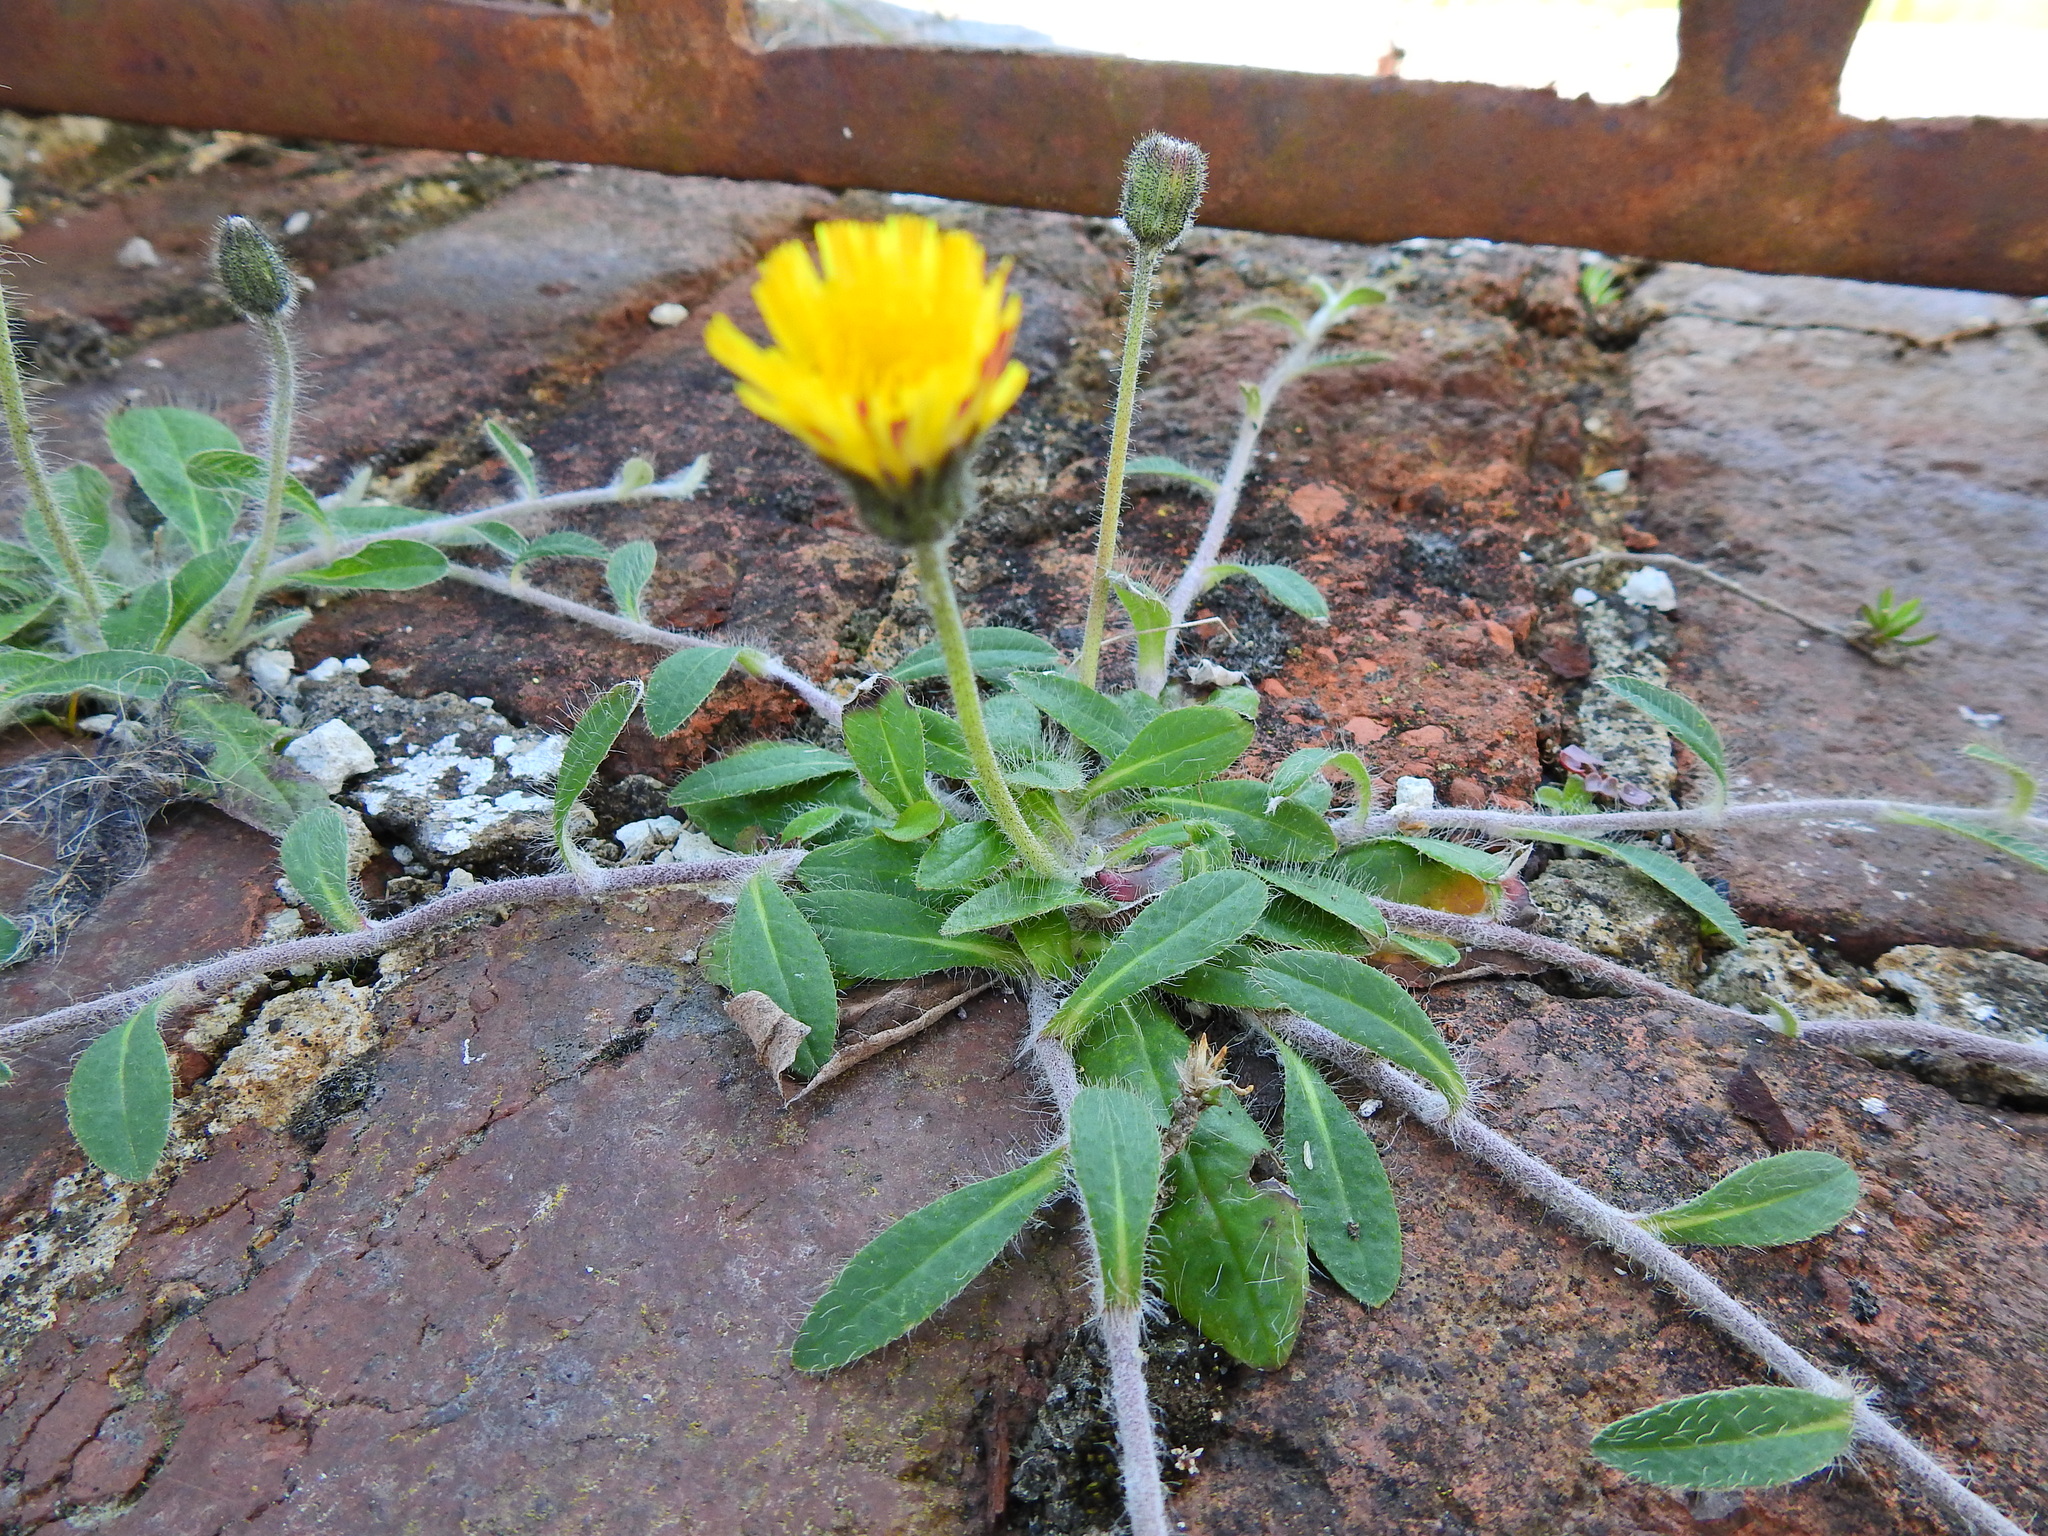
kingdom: Plantae
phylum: Tracheophyta
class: Magnoliopsida
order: Asterales
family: Asteraceae
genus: Pilosella
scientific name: Pilosella officinarum
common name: Mouse-ear hawkweed
